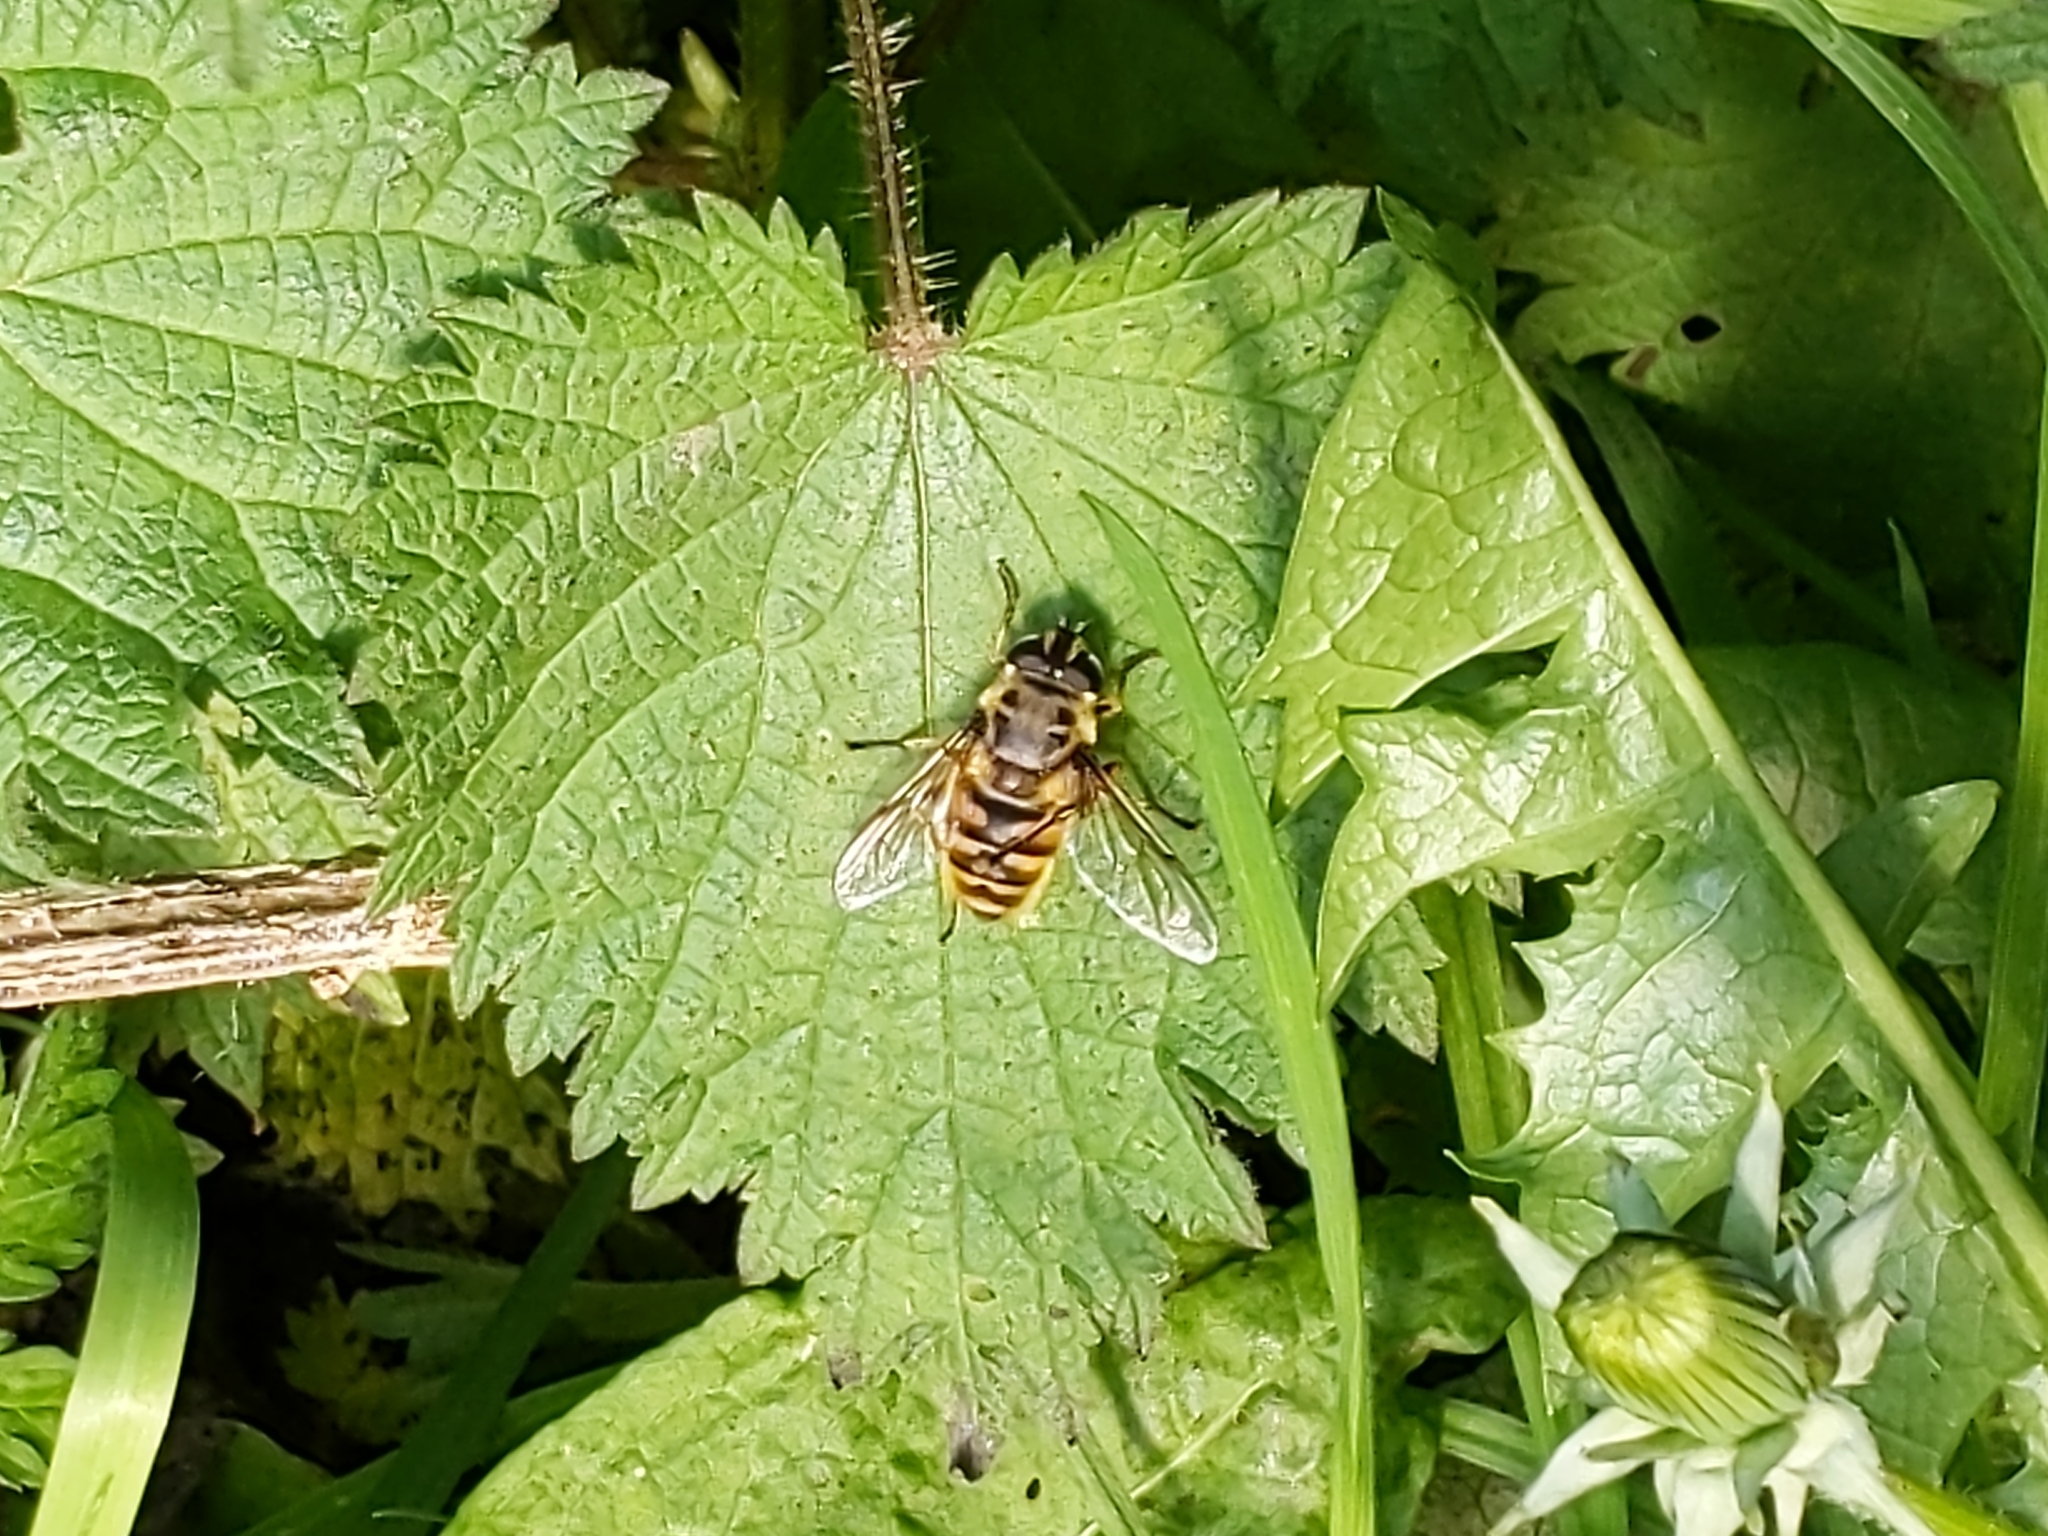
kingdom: Animalia
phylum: Arthropoda
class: Insecta
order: Diptera
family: Syrphidae
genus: Myathropa
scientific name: Myathropa florea
